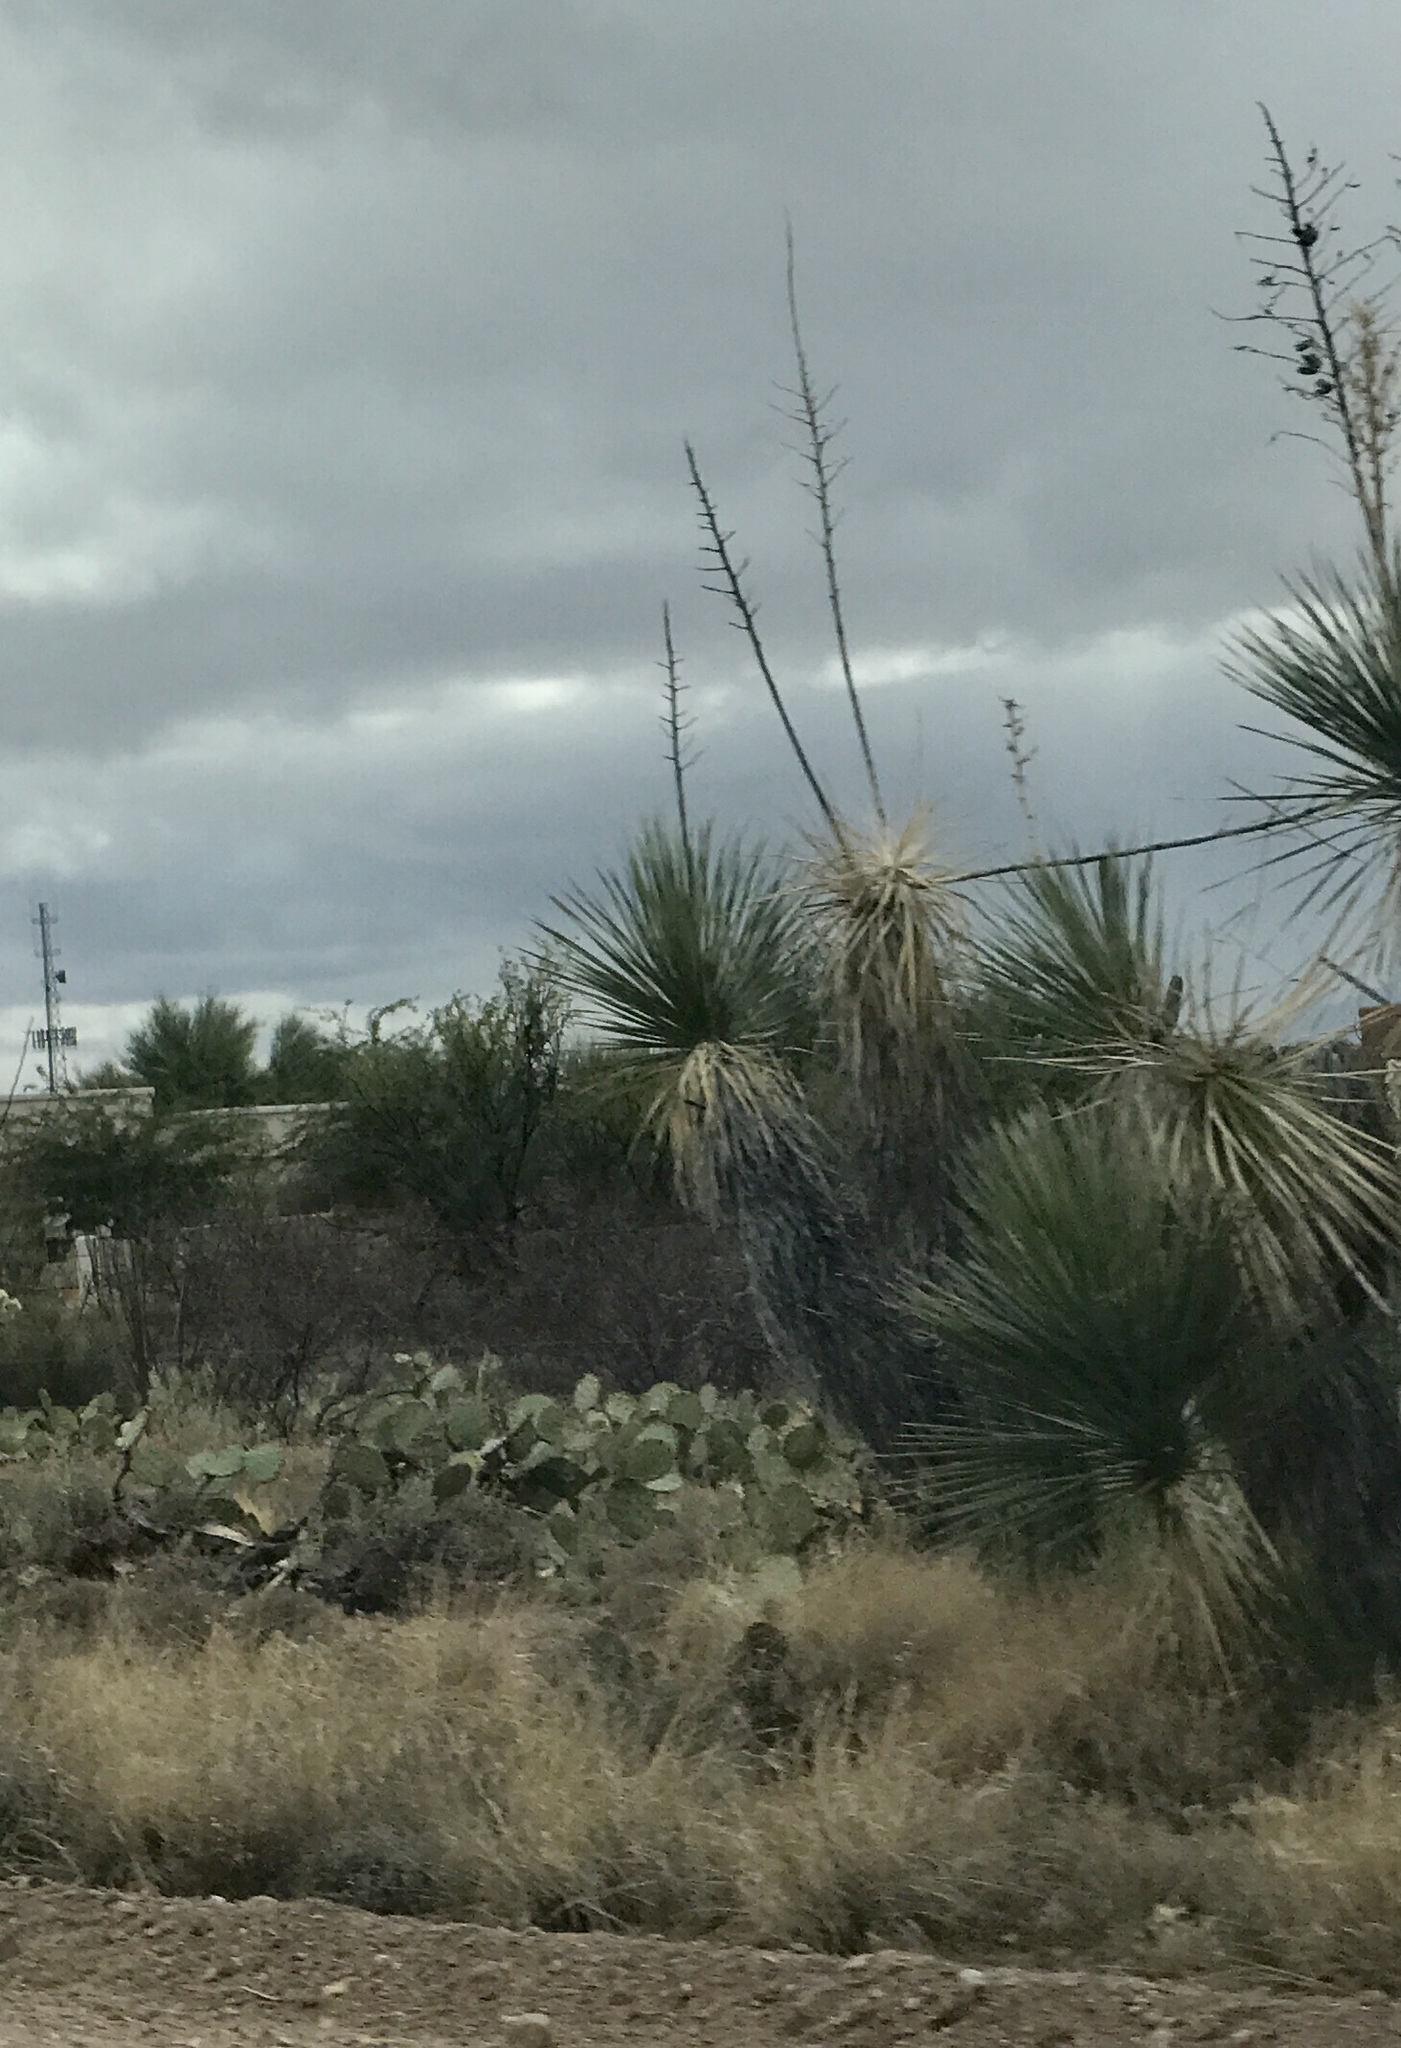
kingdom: Plantae
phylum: Tracheophyta
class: Liliopsida
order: Asparagales
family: Asparagaceae
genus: Yucca
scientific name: Yucca elata
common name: Palmella
